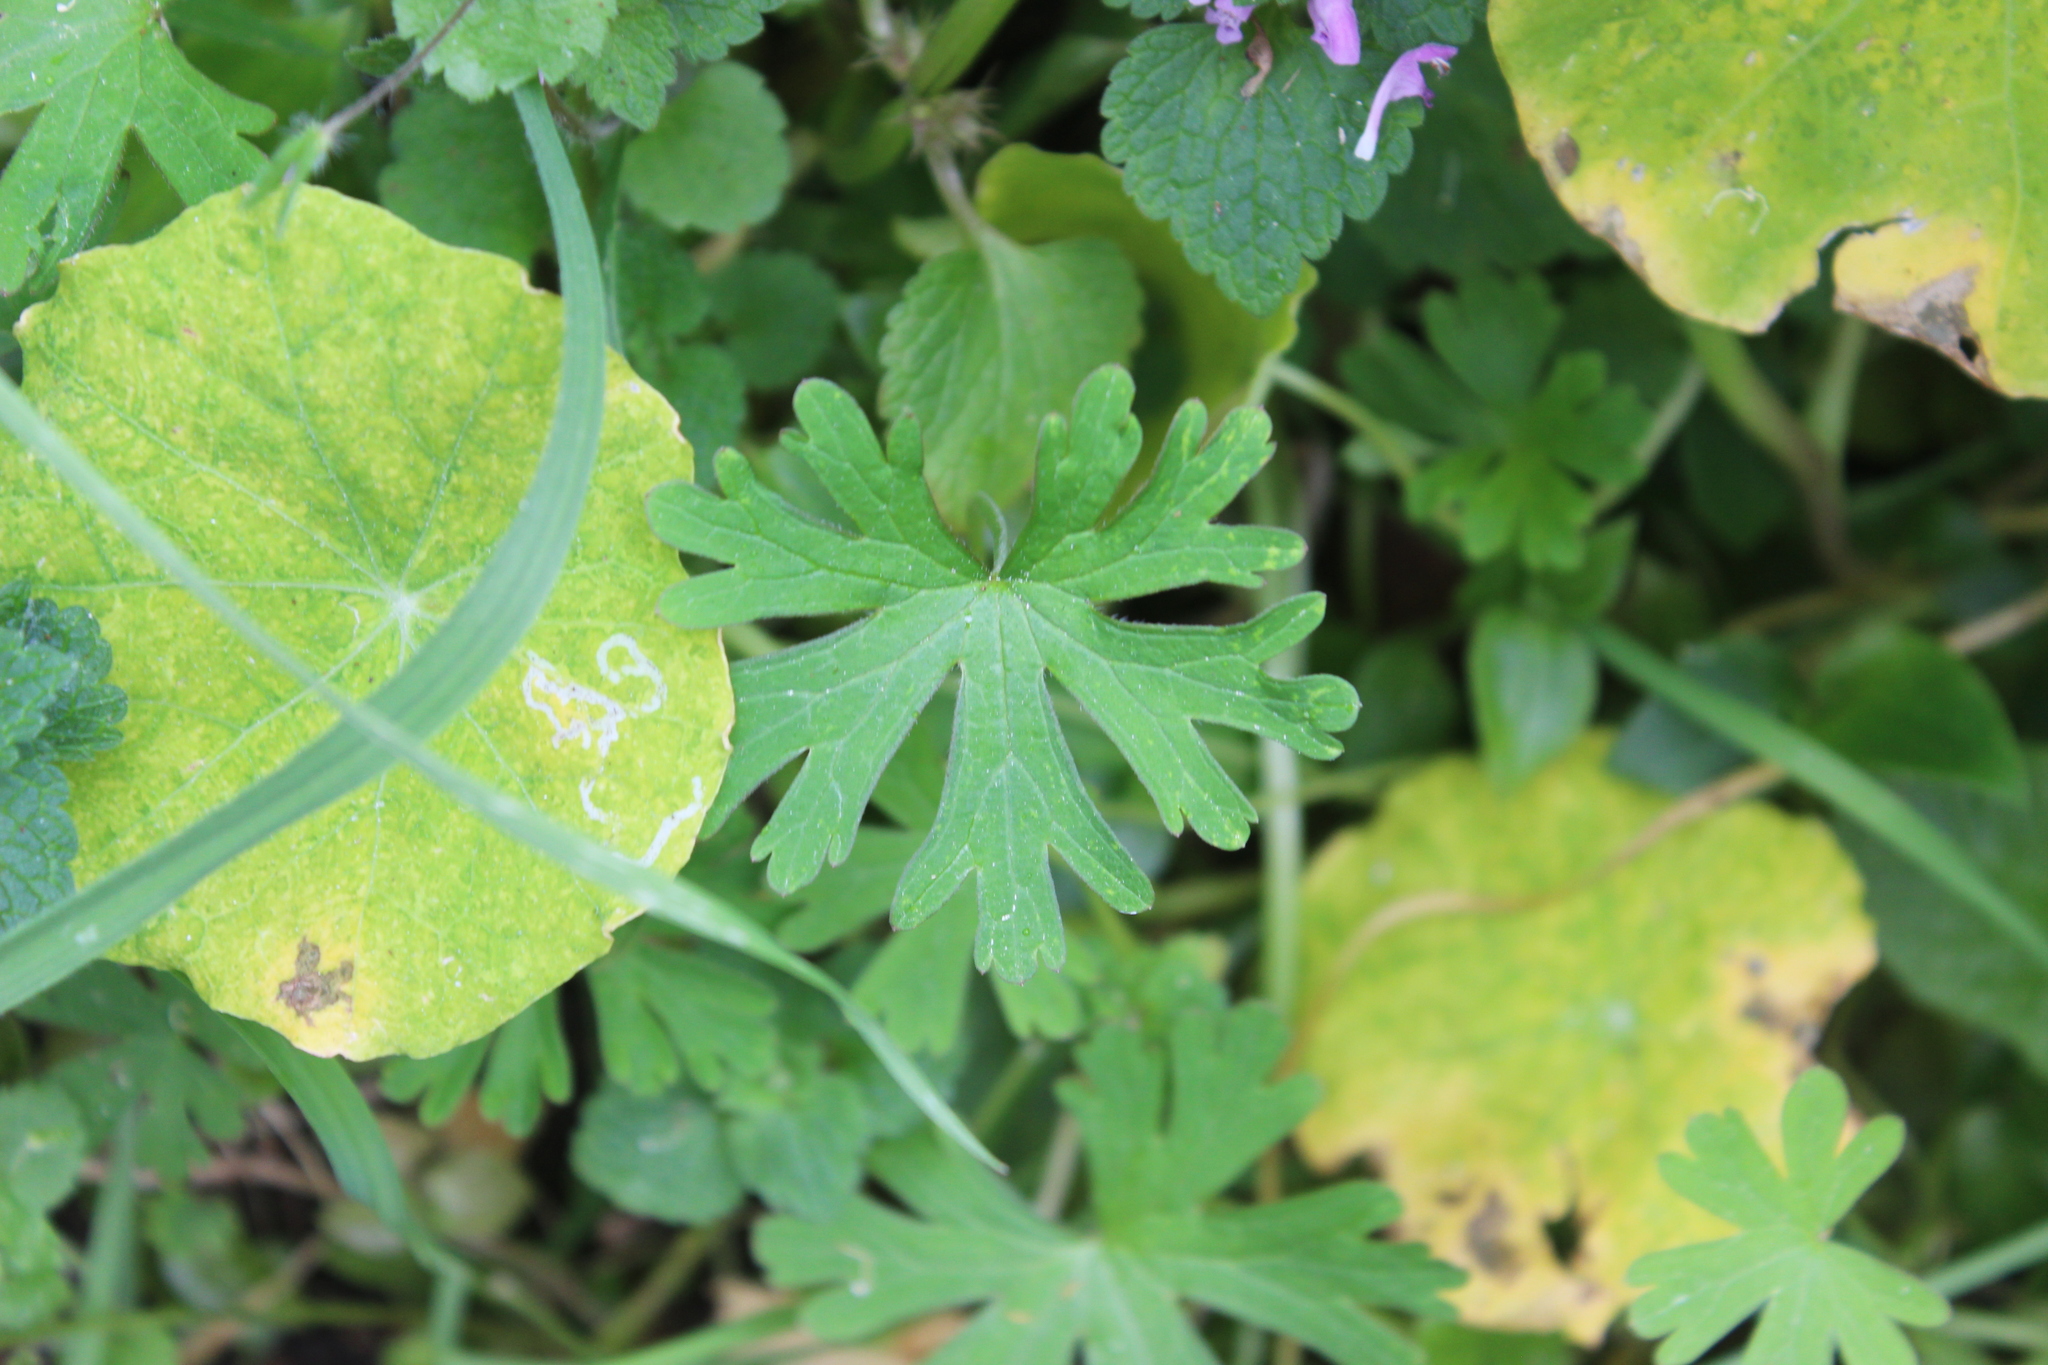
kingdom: Plantae
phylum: Tracheophyta
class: Magnoliopsida
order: Geraniales
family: Geraniaceae
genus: Geranium
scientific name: Geranium dissectum
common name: Cut-leaved crane's-bill
